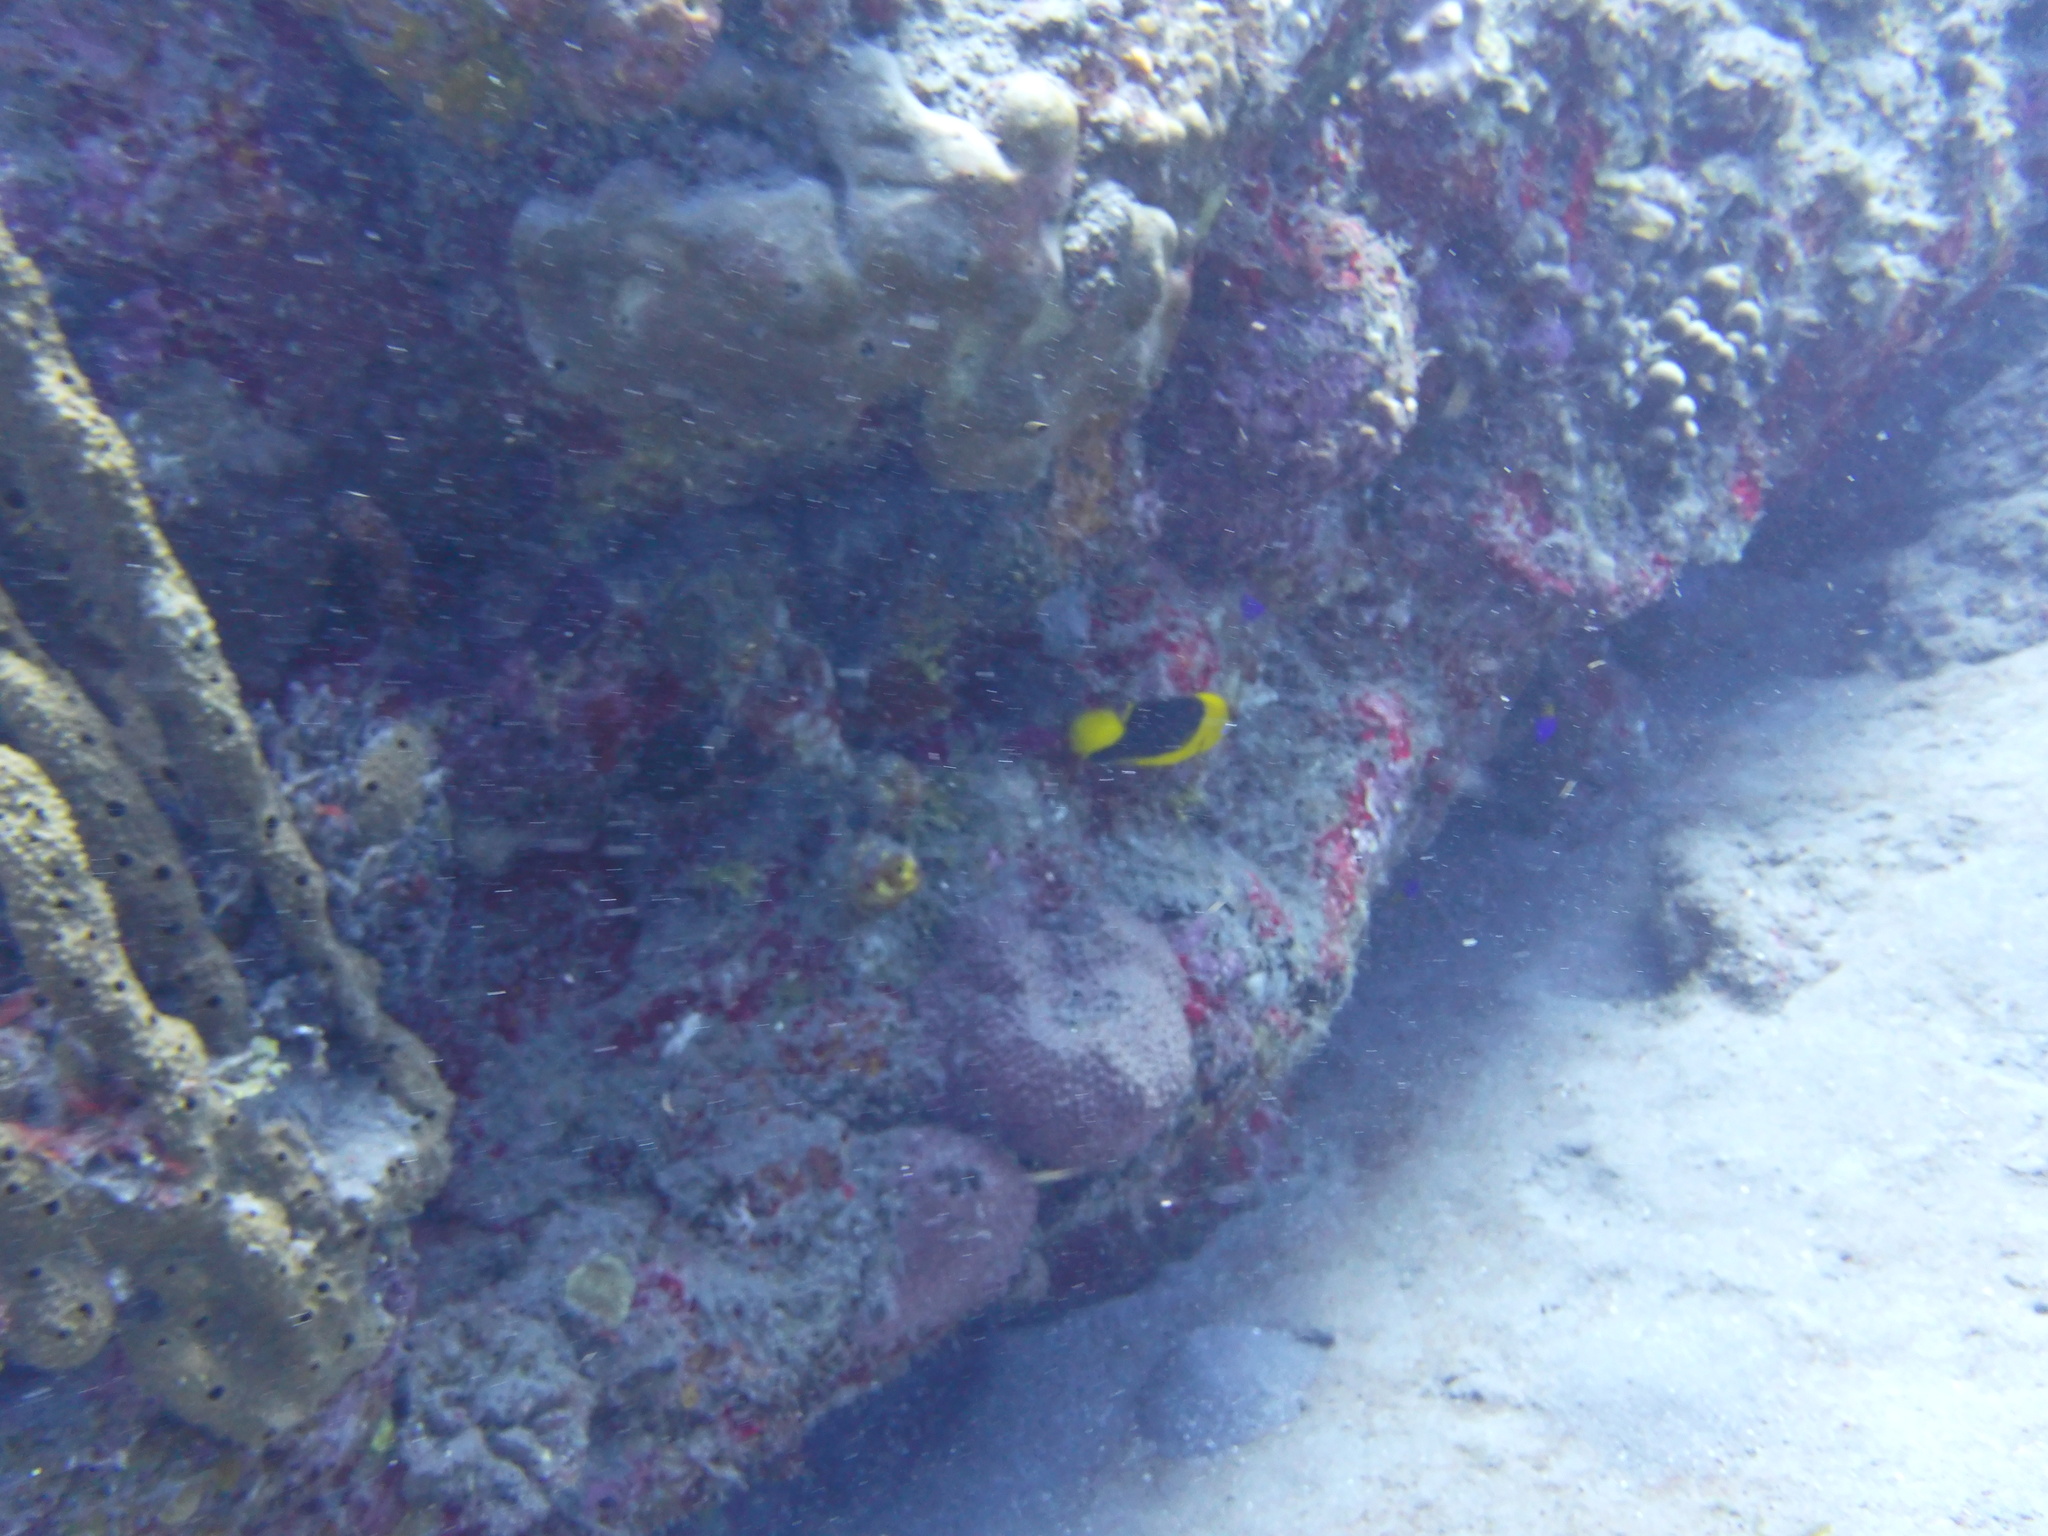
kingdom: Animalia
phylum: Chordata
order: Perciformes
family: Pomacanthidae
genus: Holacanthus
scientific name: Holacanthus tricolor
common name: Rock beauty
